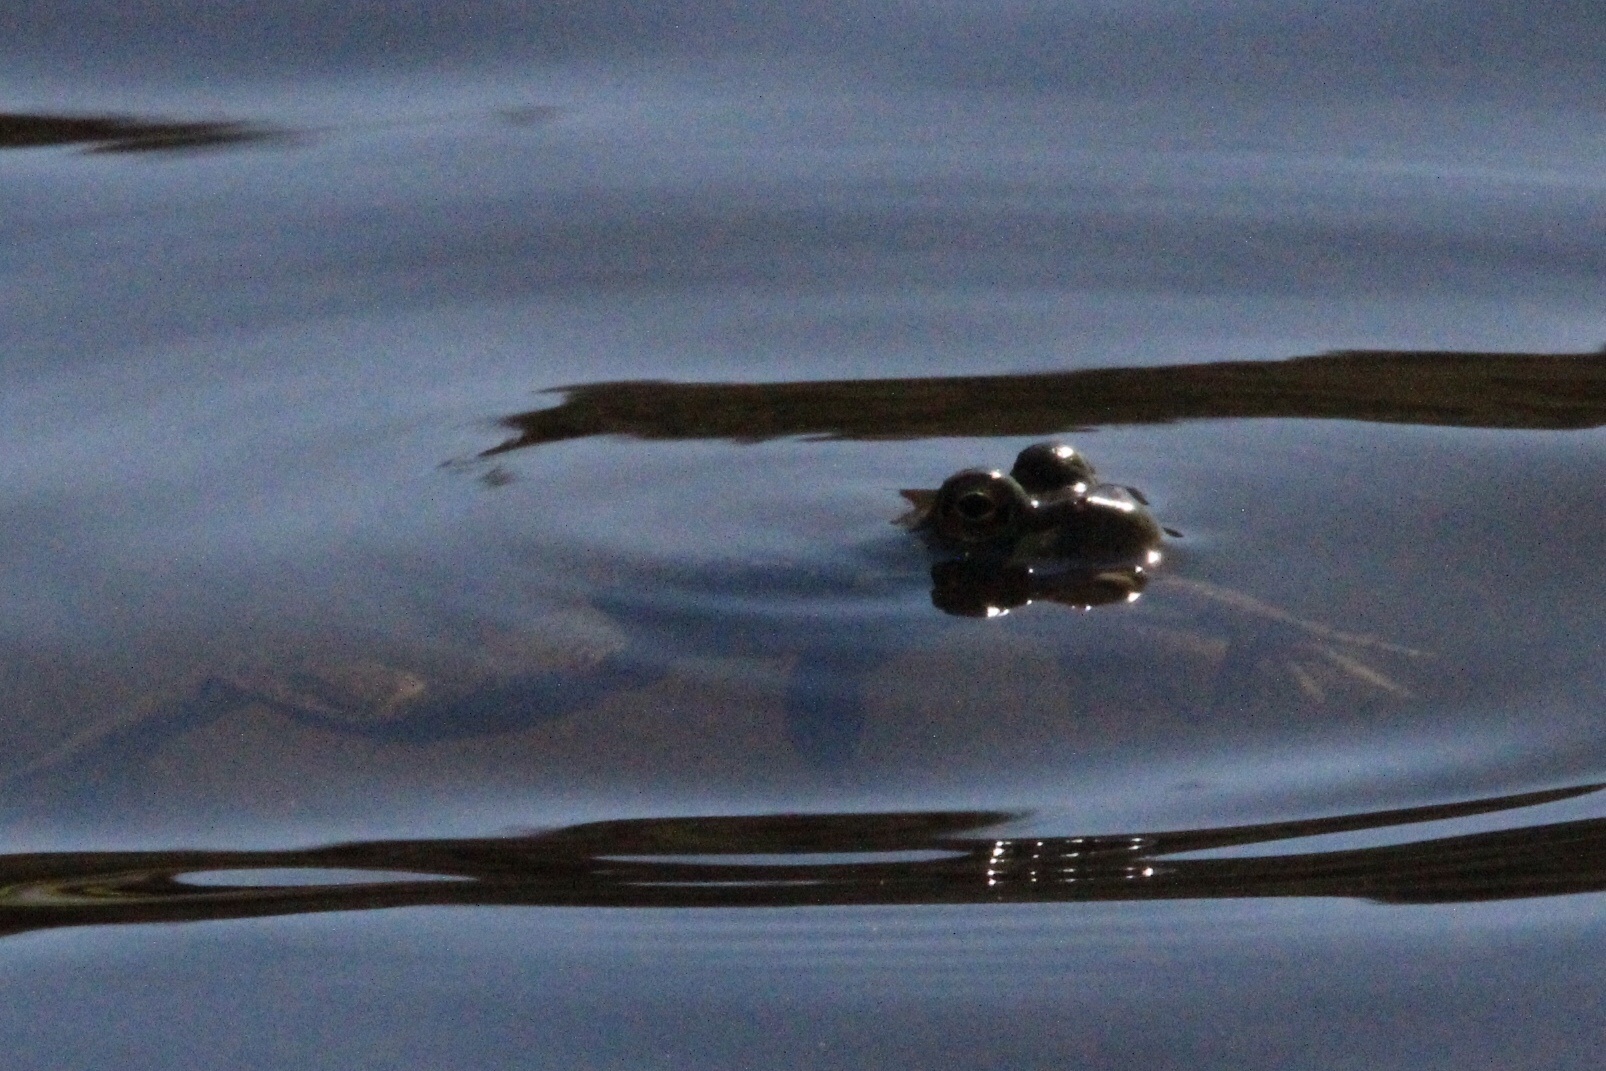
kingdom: Animalia
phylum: Chordata
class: Amphibia
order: Anura
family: Ranidae
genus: Lithobates
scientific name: Lithobates catesbeianus
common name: American bullfrog
